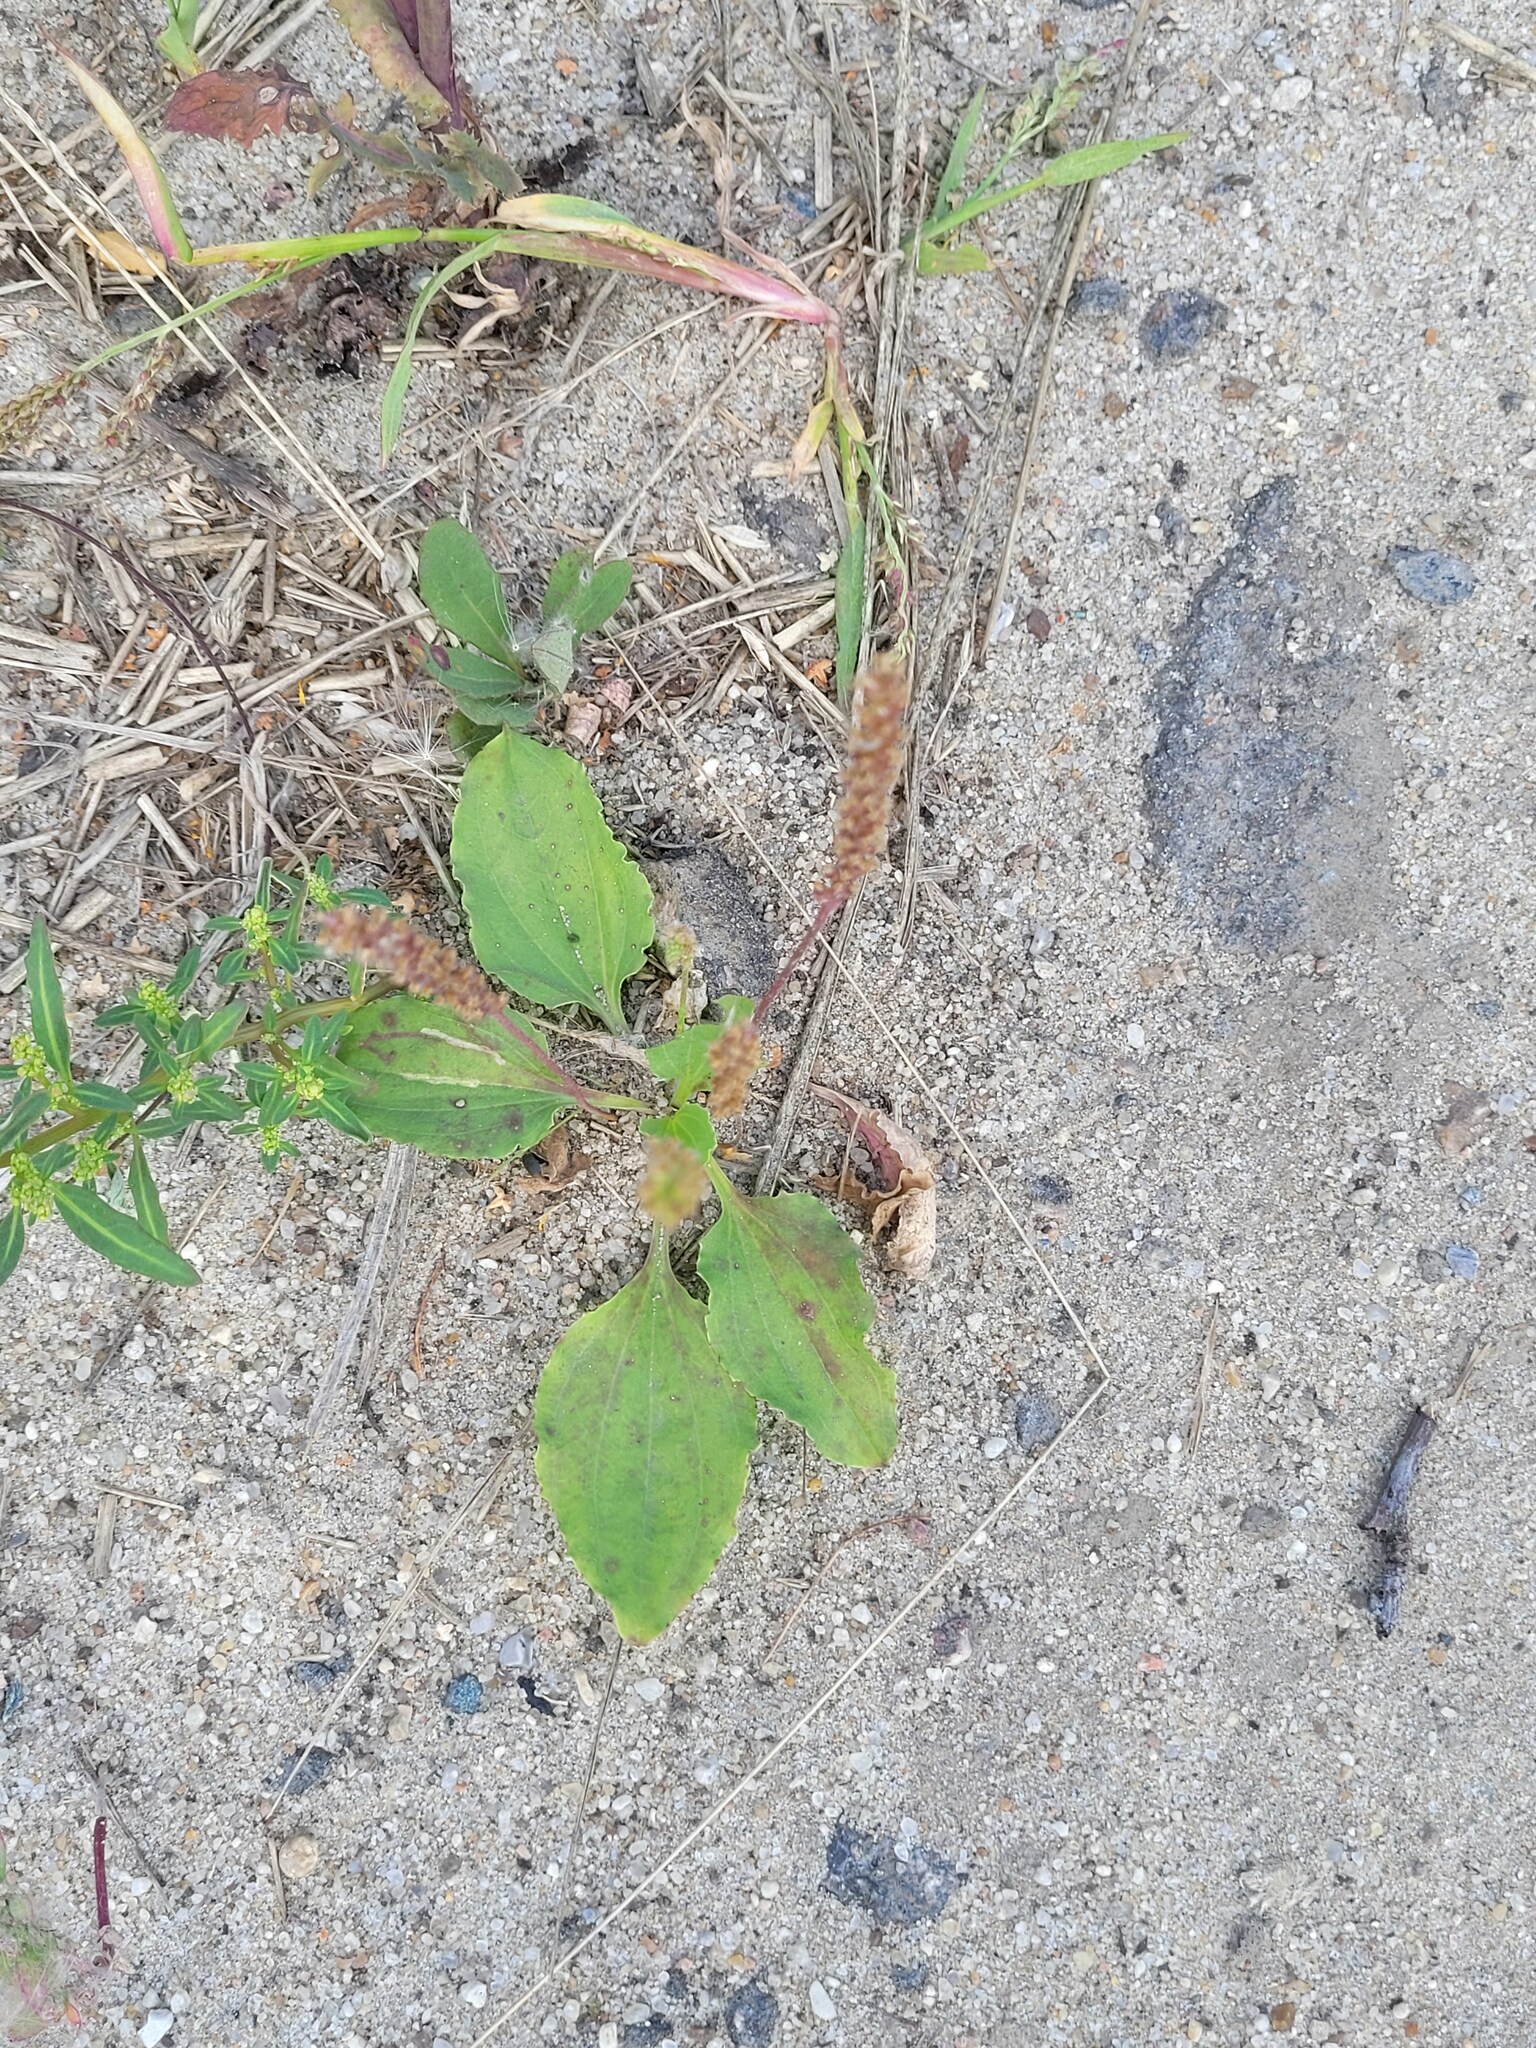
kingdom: Plantae
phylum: Tracheophyta
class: Magnoliopsida
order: Lamiales
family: Plantaginaceae
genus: Plantago
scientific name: Plantago major
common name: Common plantain
